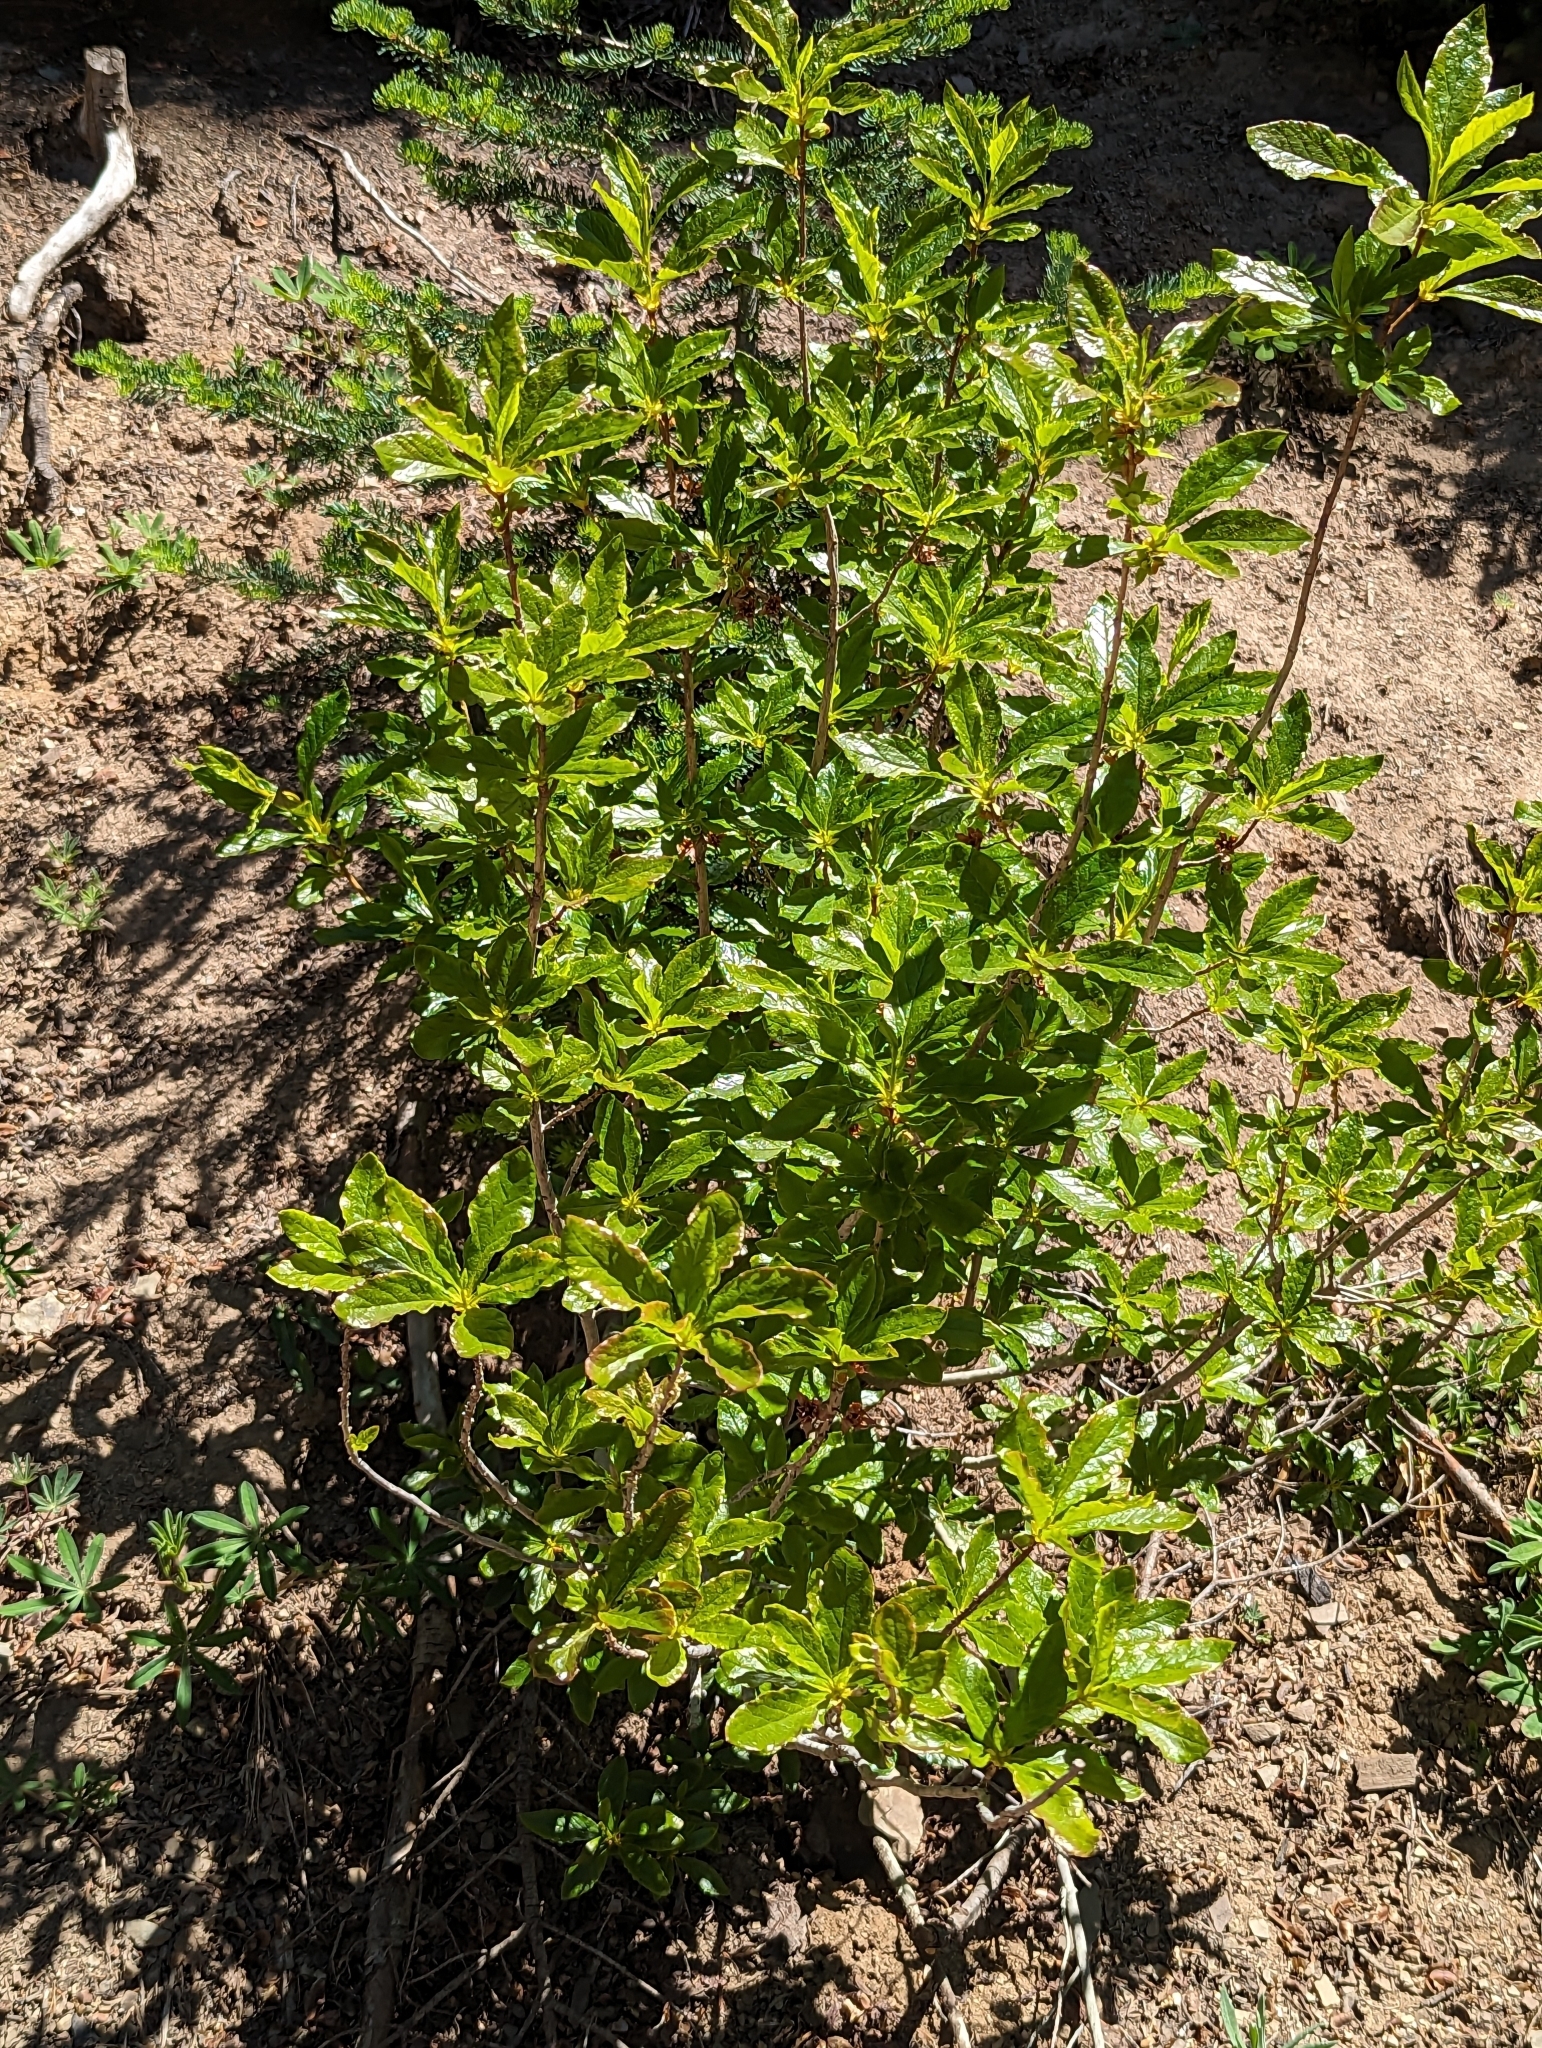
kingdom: Plantae
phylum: Tracheophyta
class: Magnoliopsida
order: Ericales
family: Ericaceae
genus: Rhododendron
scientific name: Rhododendron albiflorum
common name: White rhododendron
